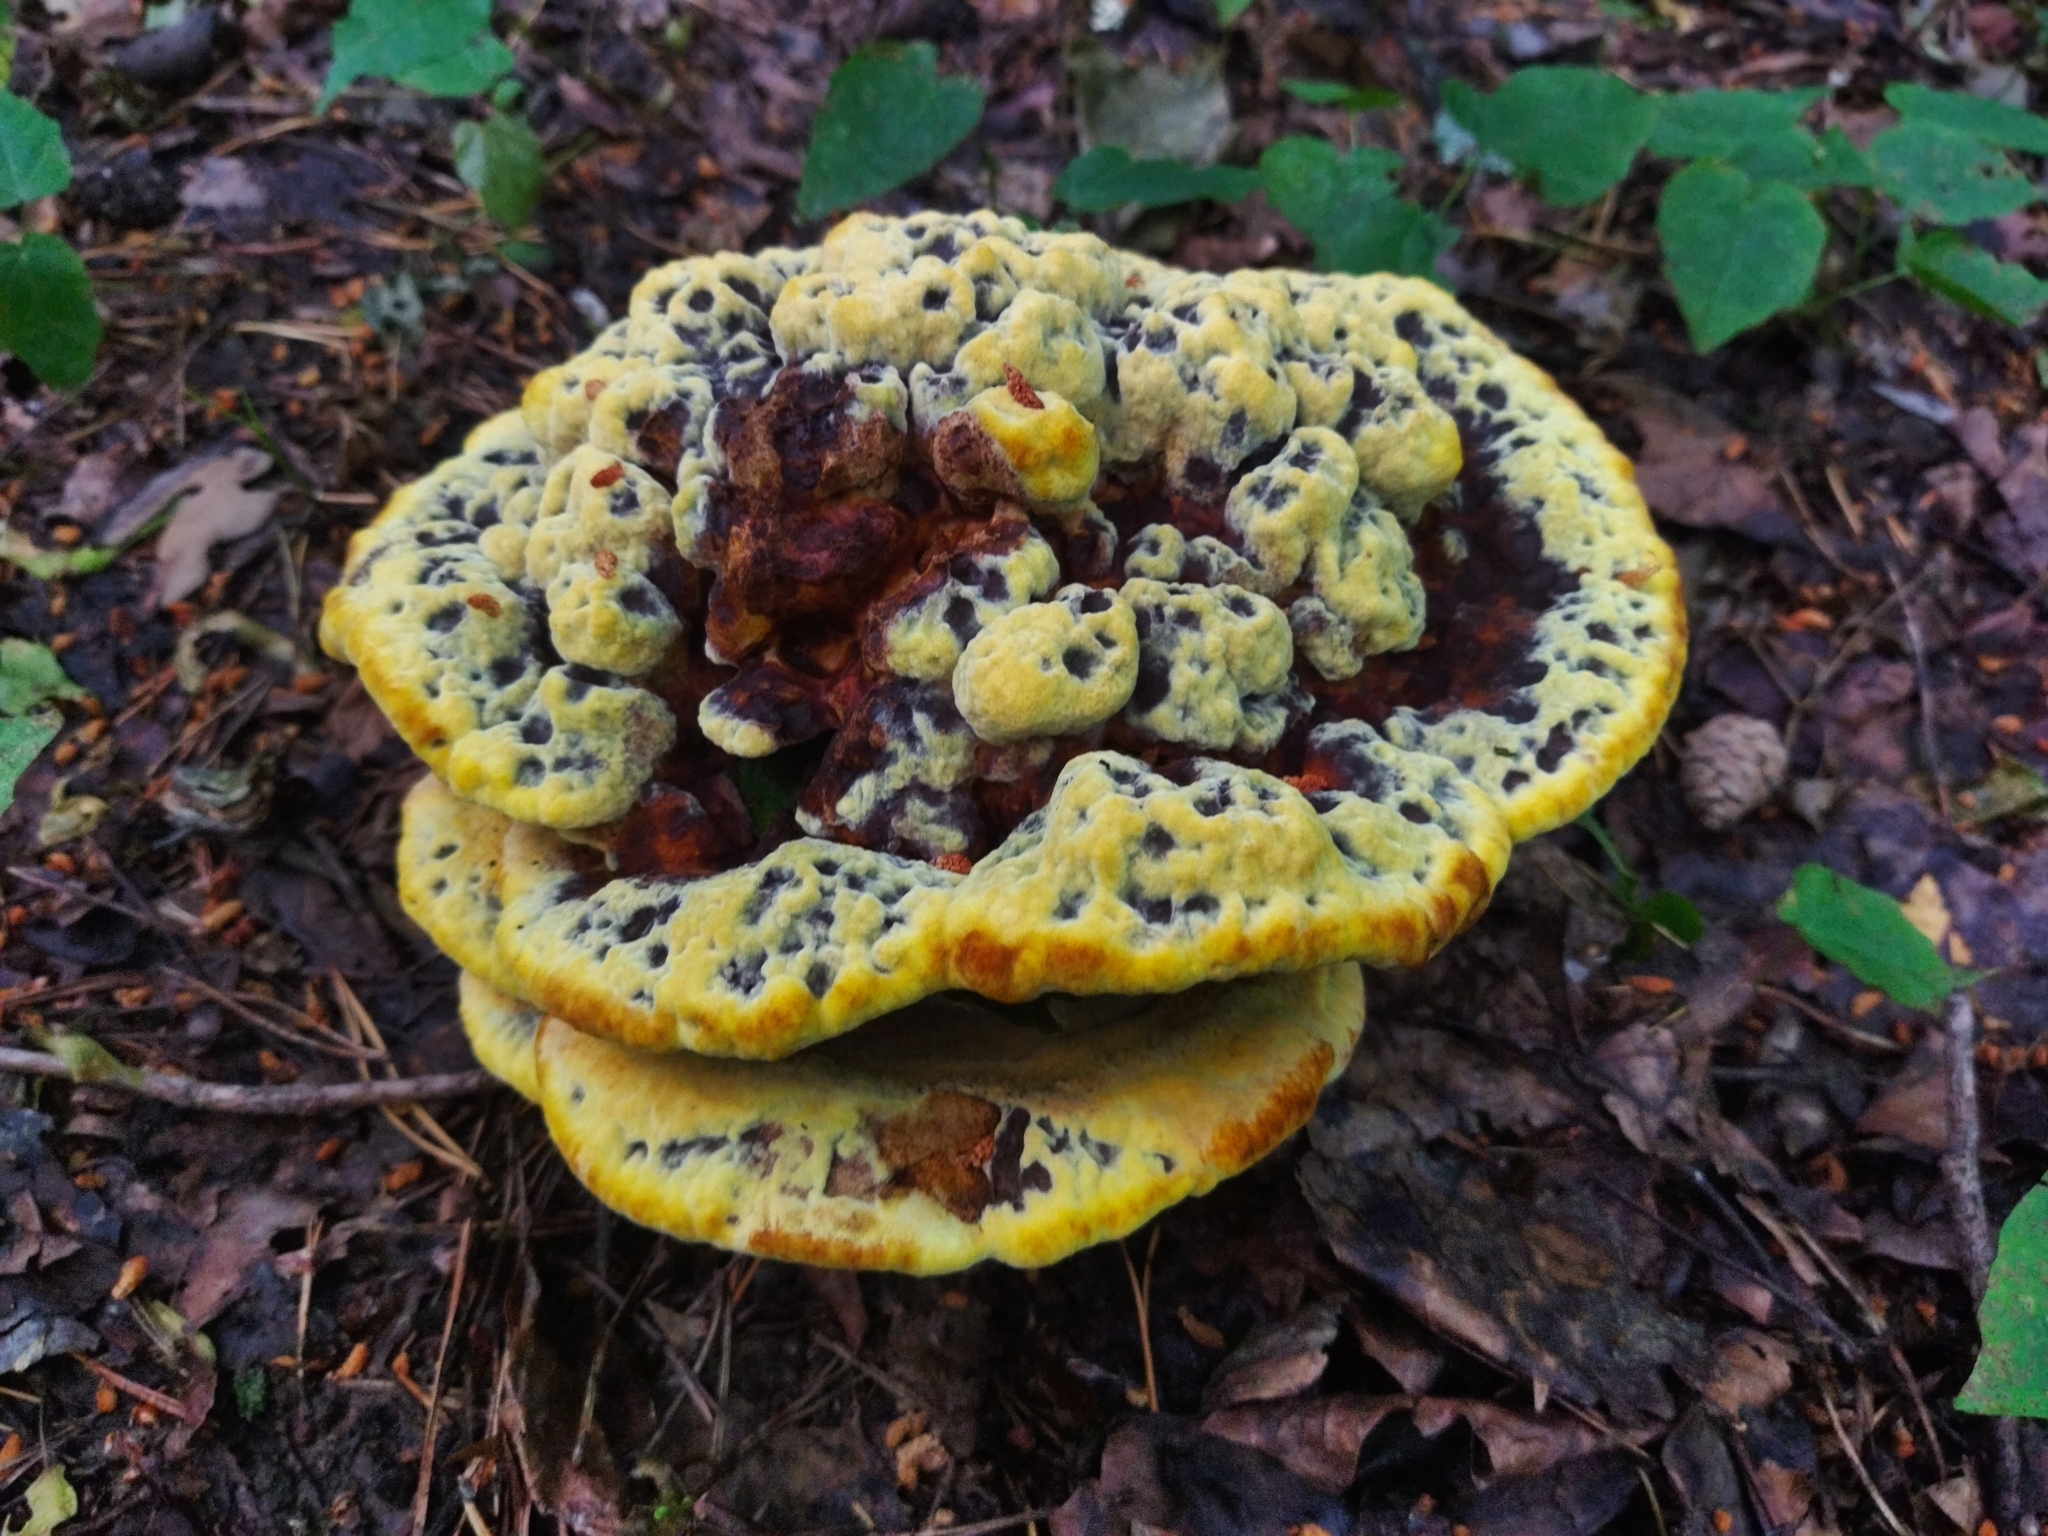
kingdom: Fungi
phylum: Basidiomycota
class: Agaricomycetes
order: Polyporales
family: Laetiporaceae
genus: Phaeolus
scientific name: Phaeolus schweinitzii
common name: Dyer's mazegill
